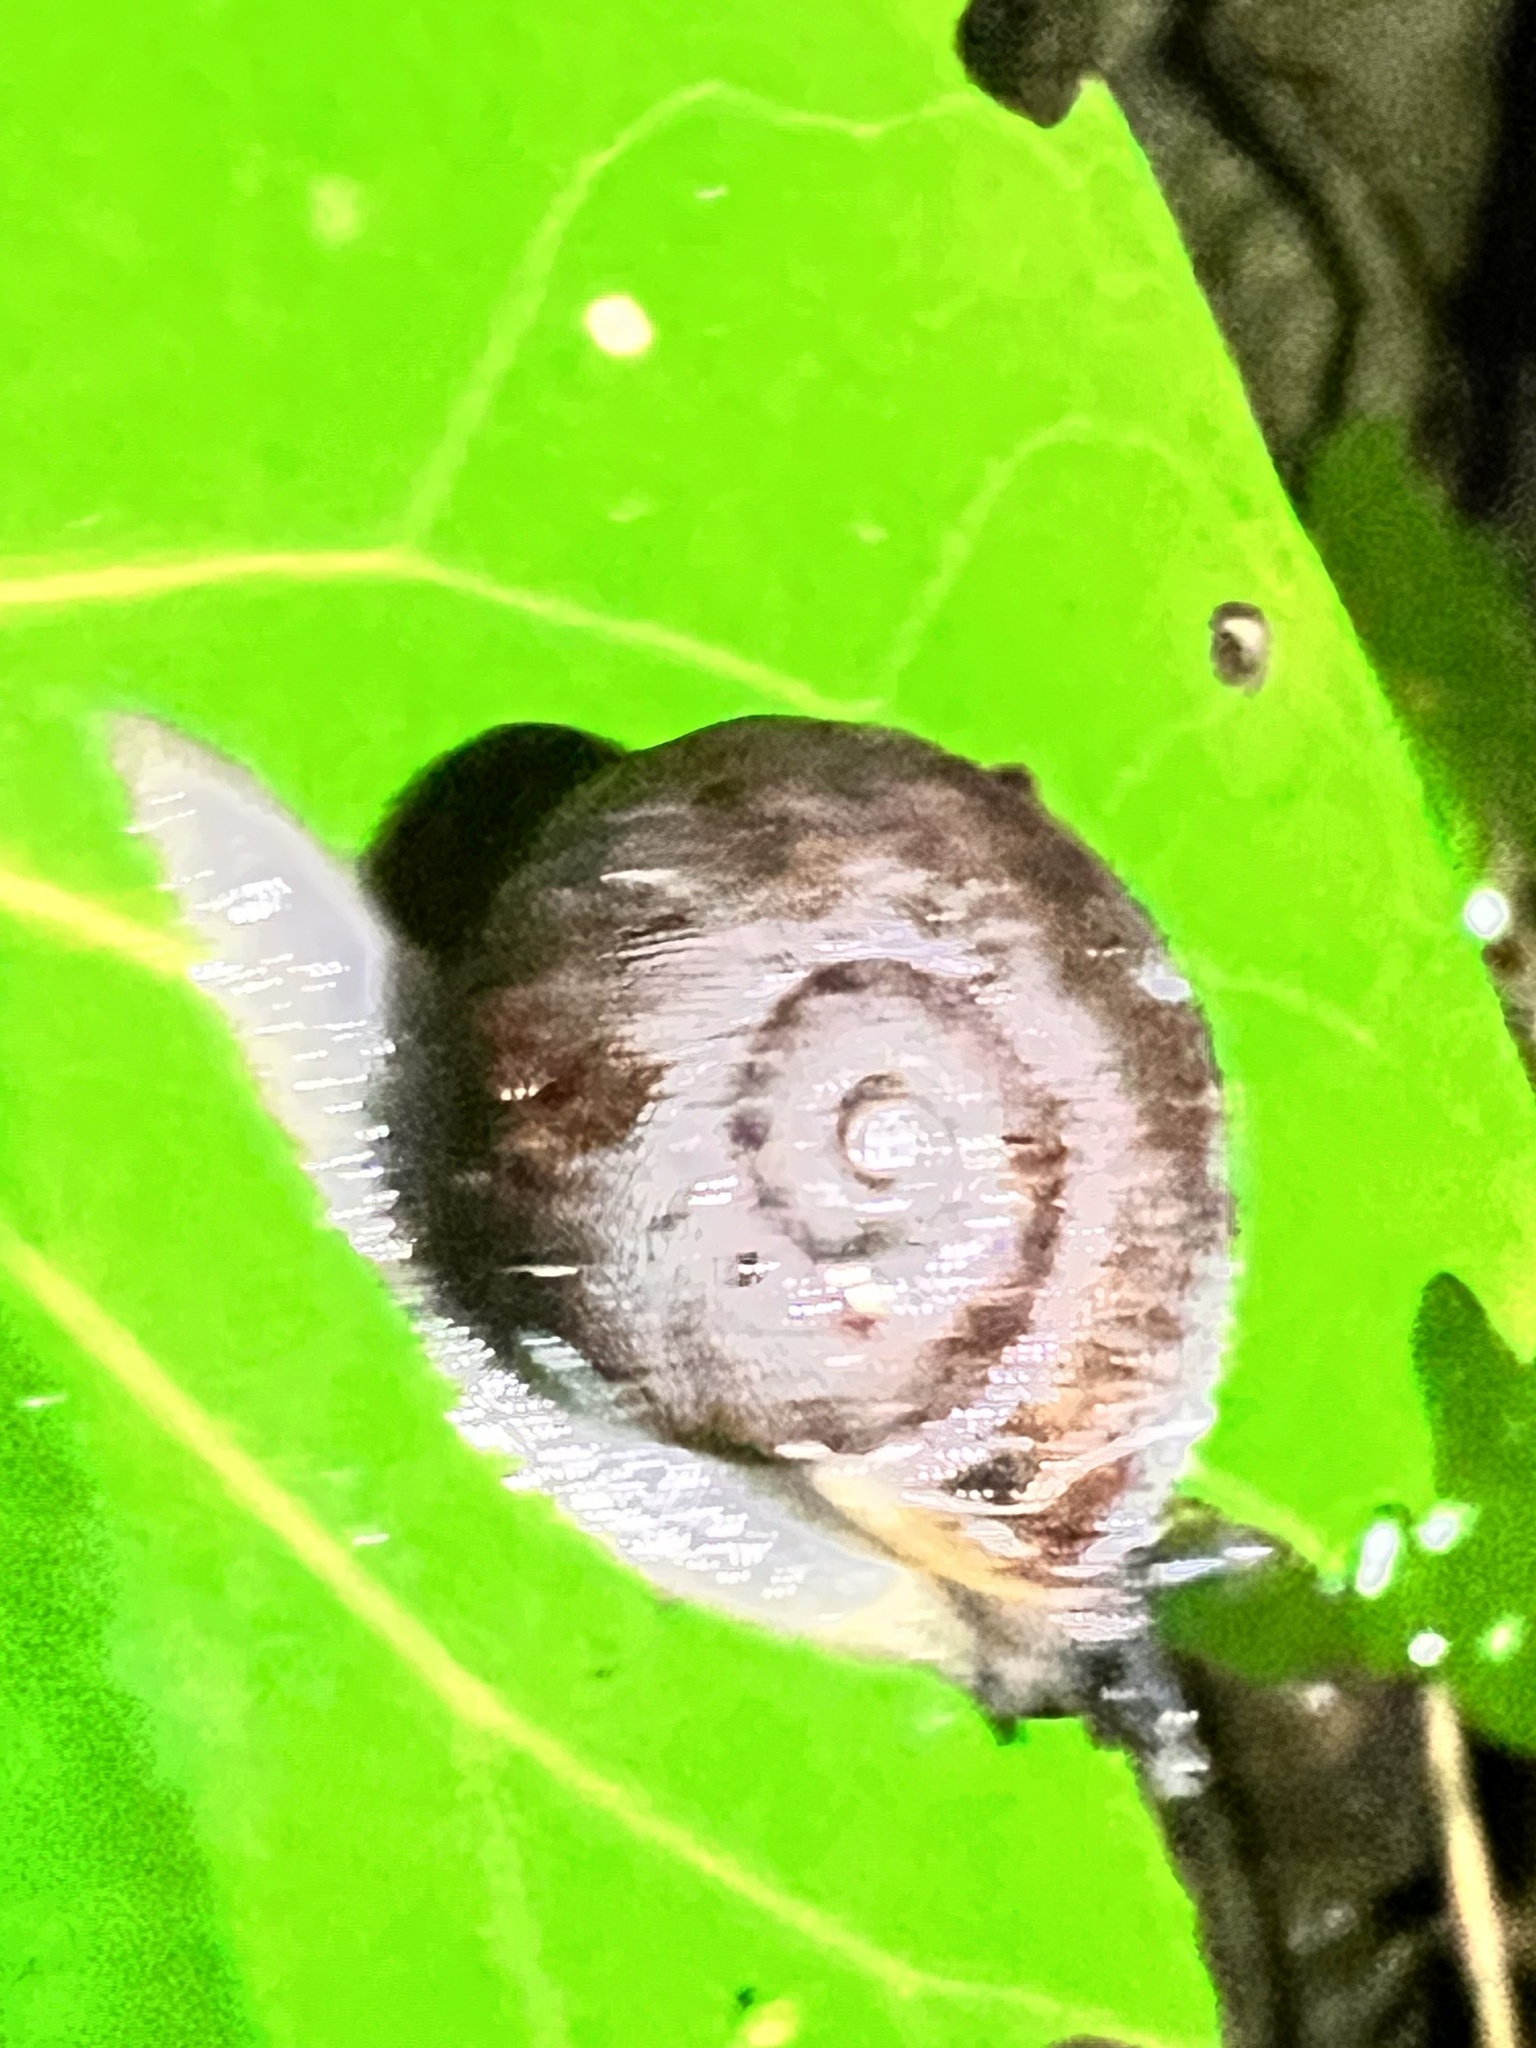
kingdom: Animalia
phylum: Mollusca
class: Gastropoda
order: Stylommatophora
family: Rhytididae
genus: Rhytida
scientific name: Rhytida greenwoodi
